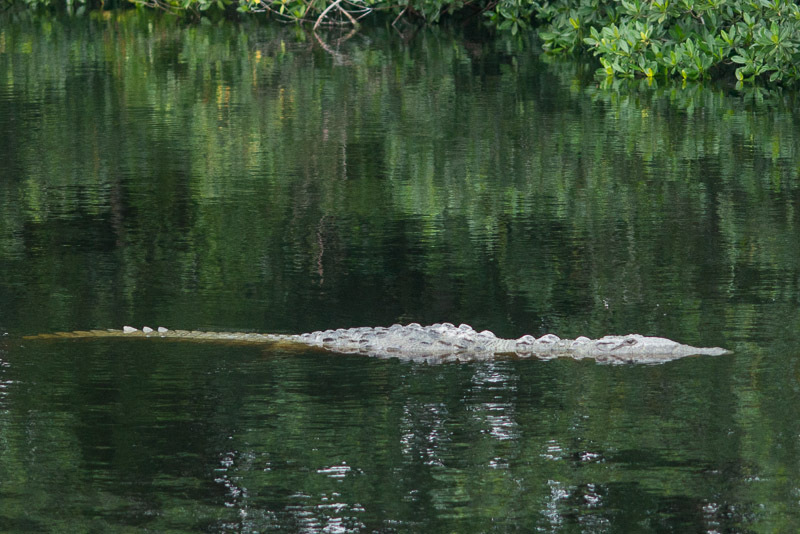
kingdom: Animalia
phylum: Chordata
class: Crocodylia
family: Crocodylidae
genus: Crocodylus
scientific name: Crocodylus acutus
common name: American crocodile
